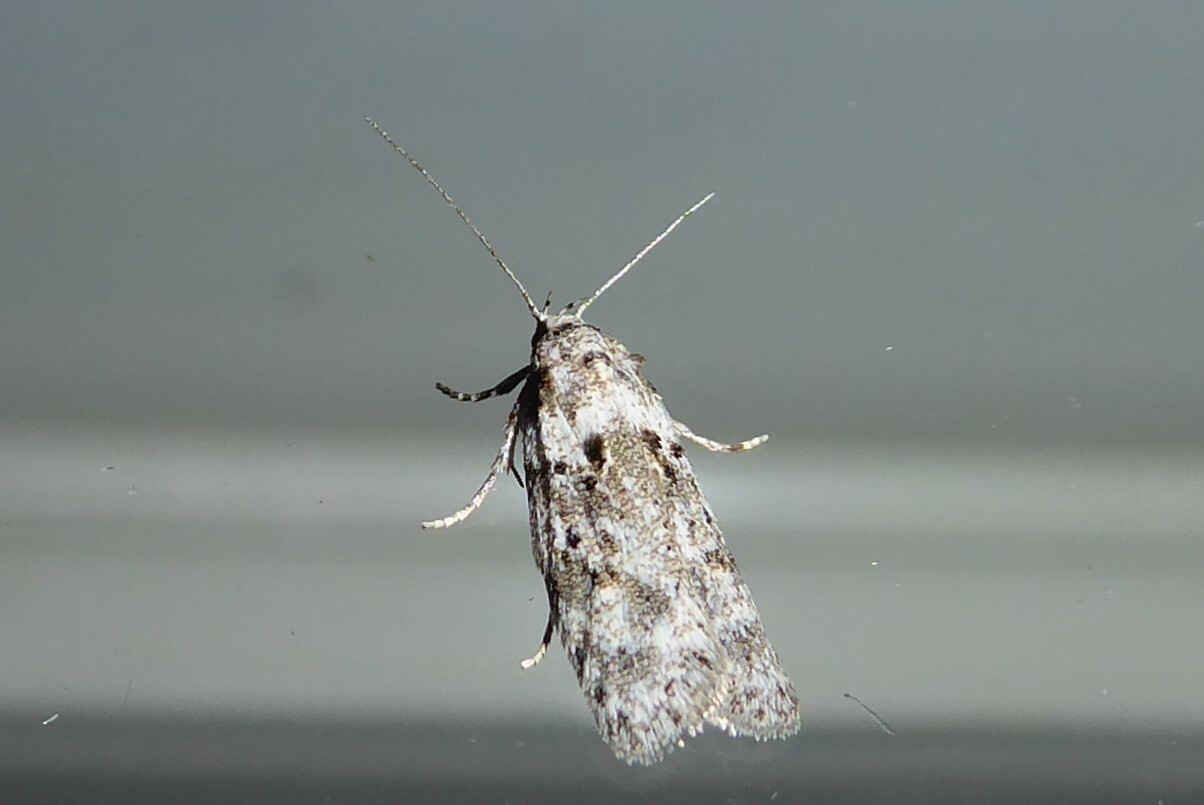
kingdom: Animalia
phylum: Arthropoda
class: Insecta
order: Lepidoptera
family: Oecophoridae
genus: Izatha
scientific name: Izatha convulsella
